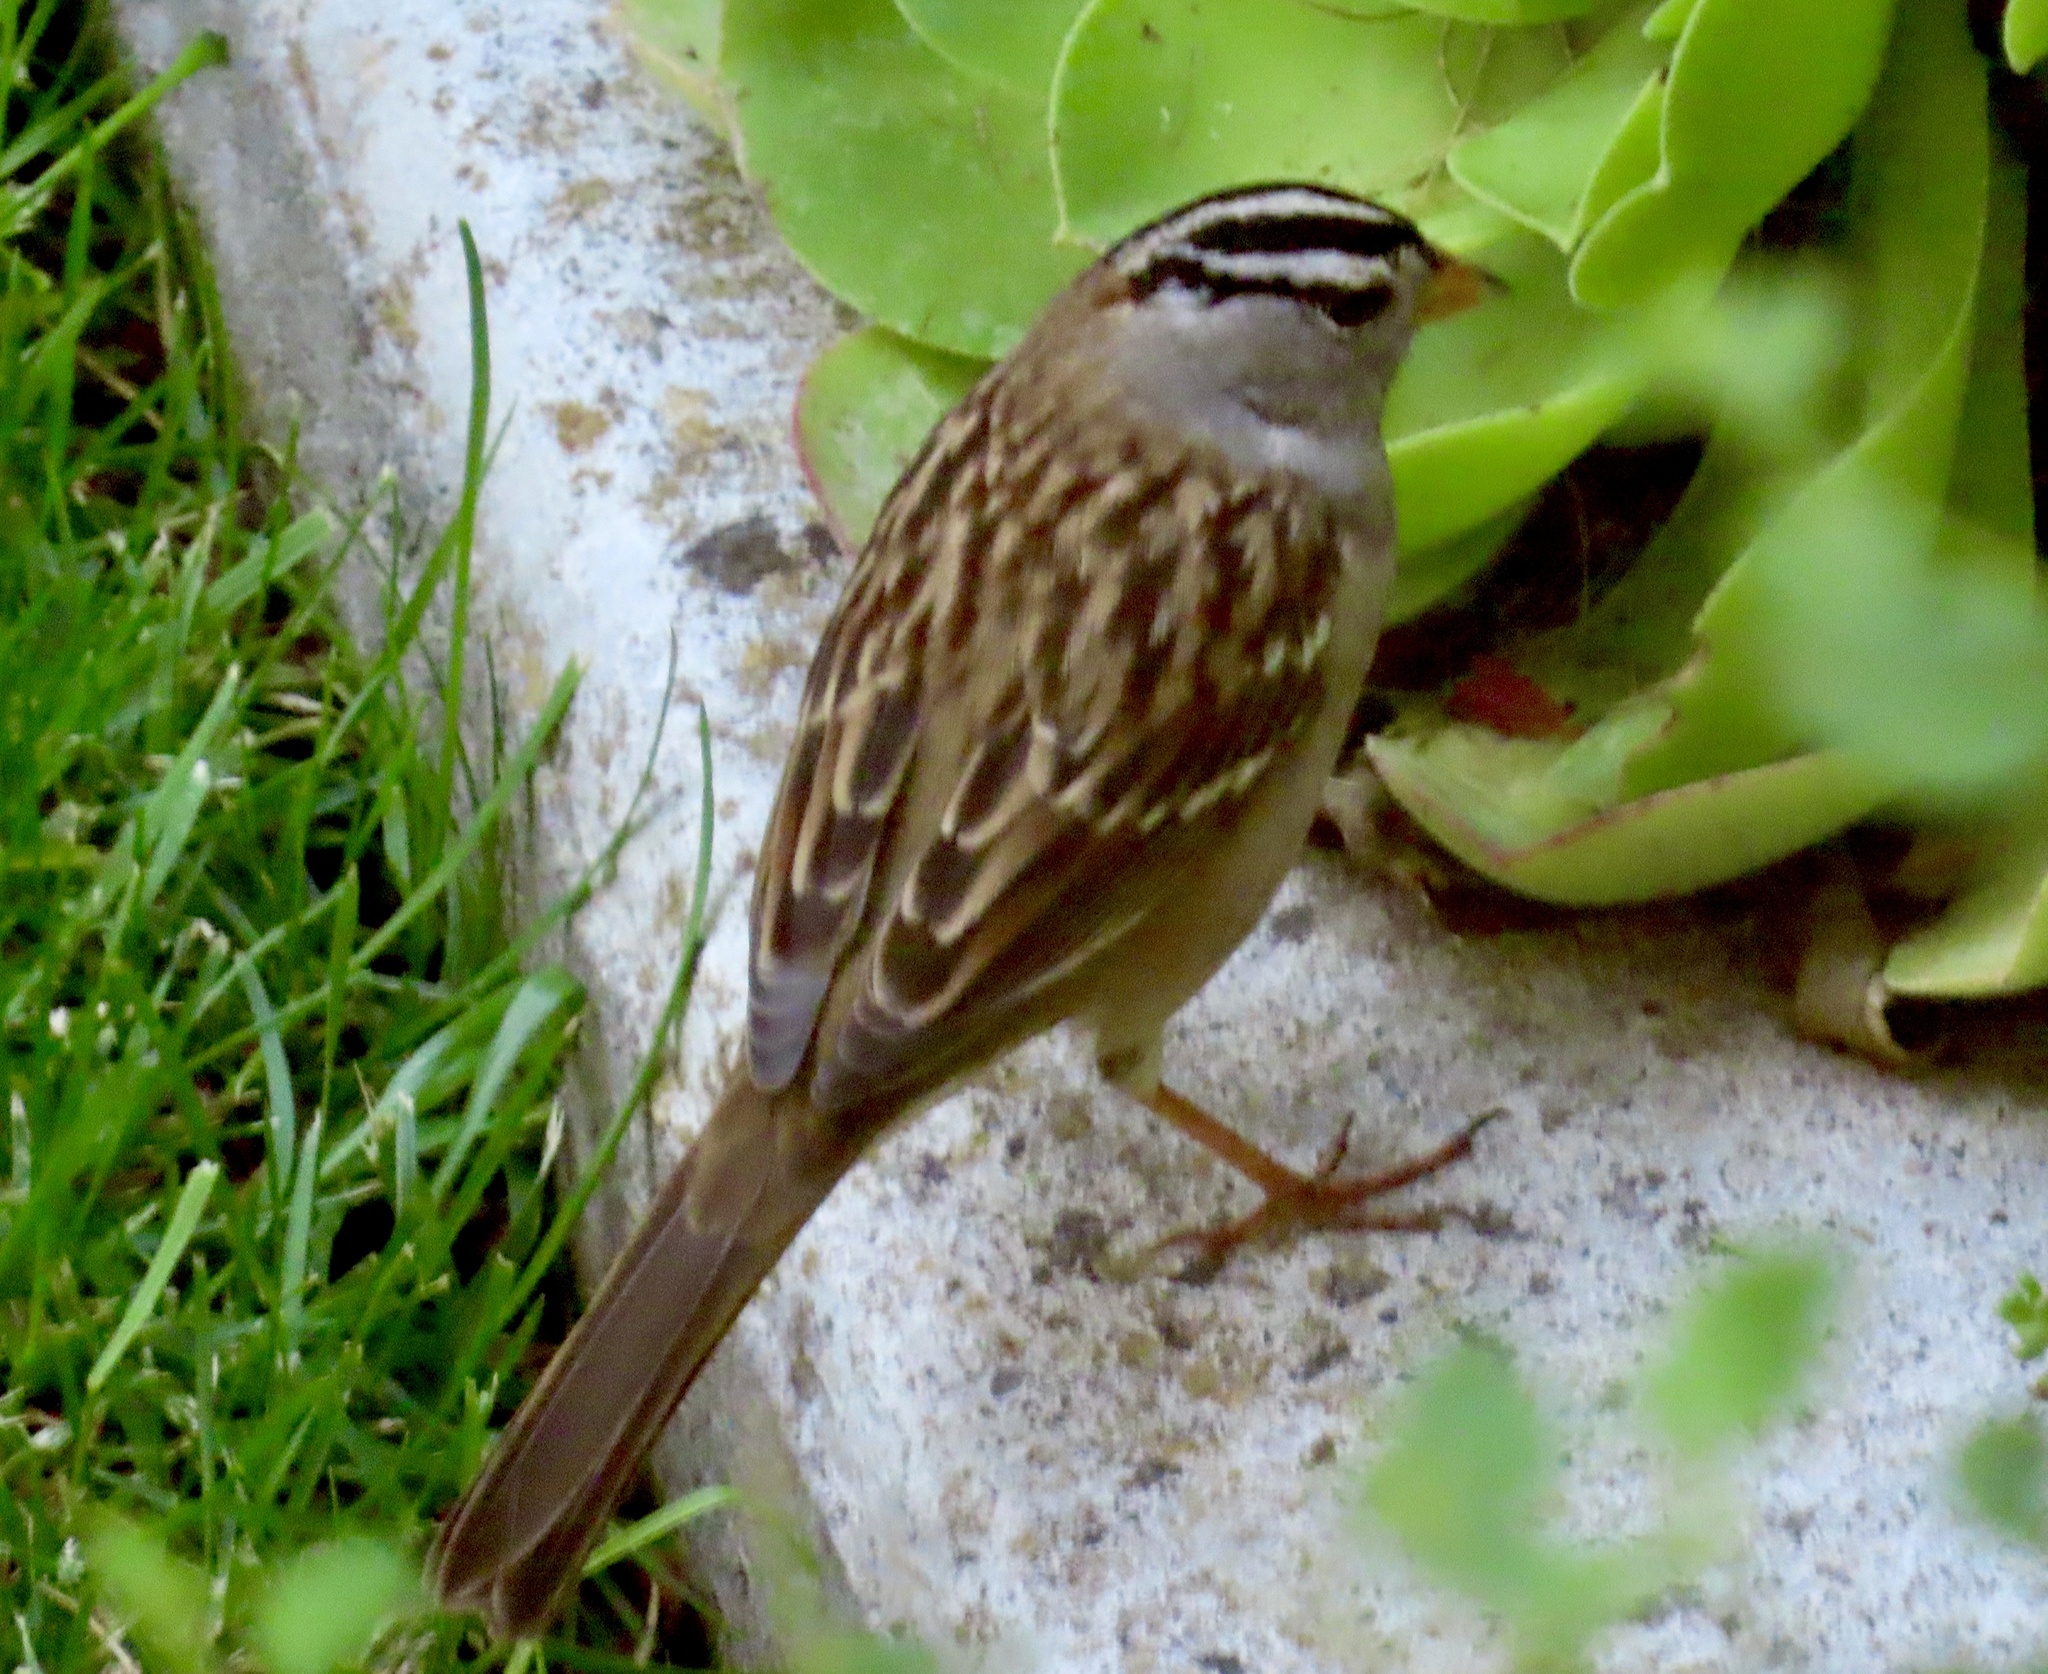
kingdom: Animalia
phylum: Chordata
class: Aves
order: Passeriformes
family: Passerellidae
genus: Zonotrichia
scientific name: Zonotrichia leucophrys
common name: White-crowned sparrow
